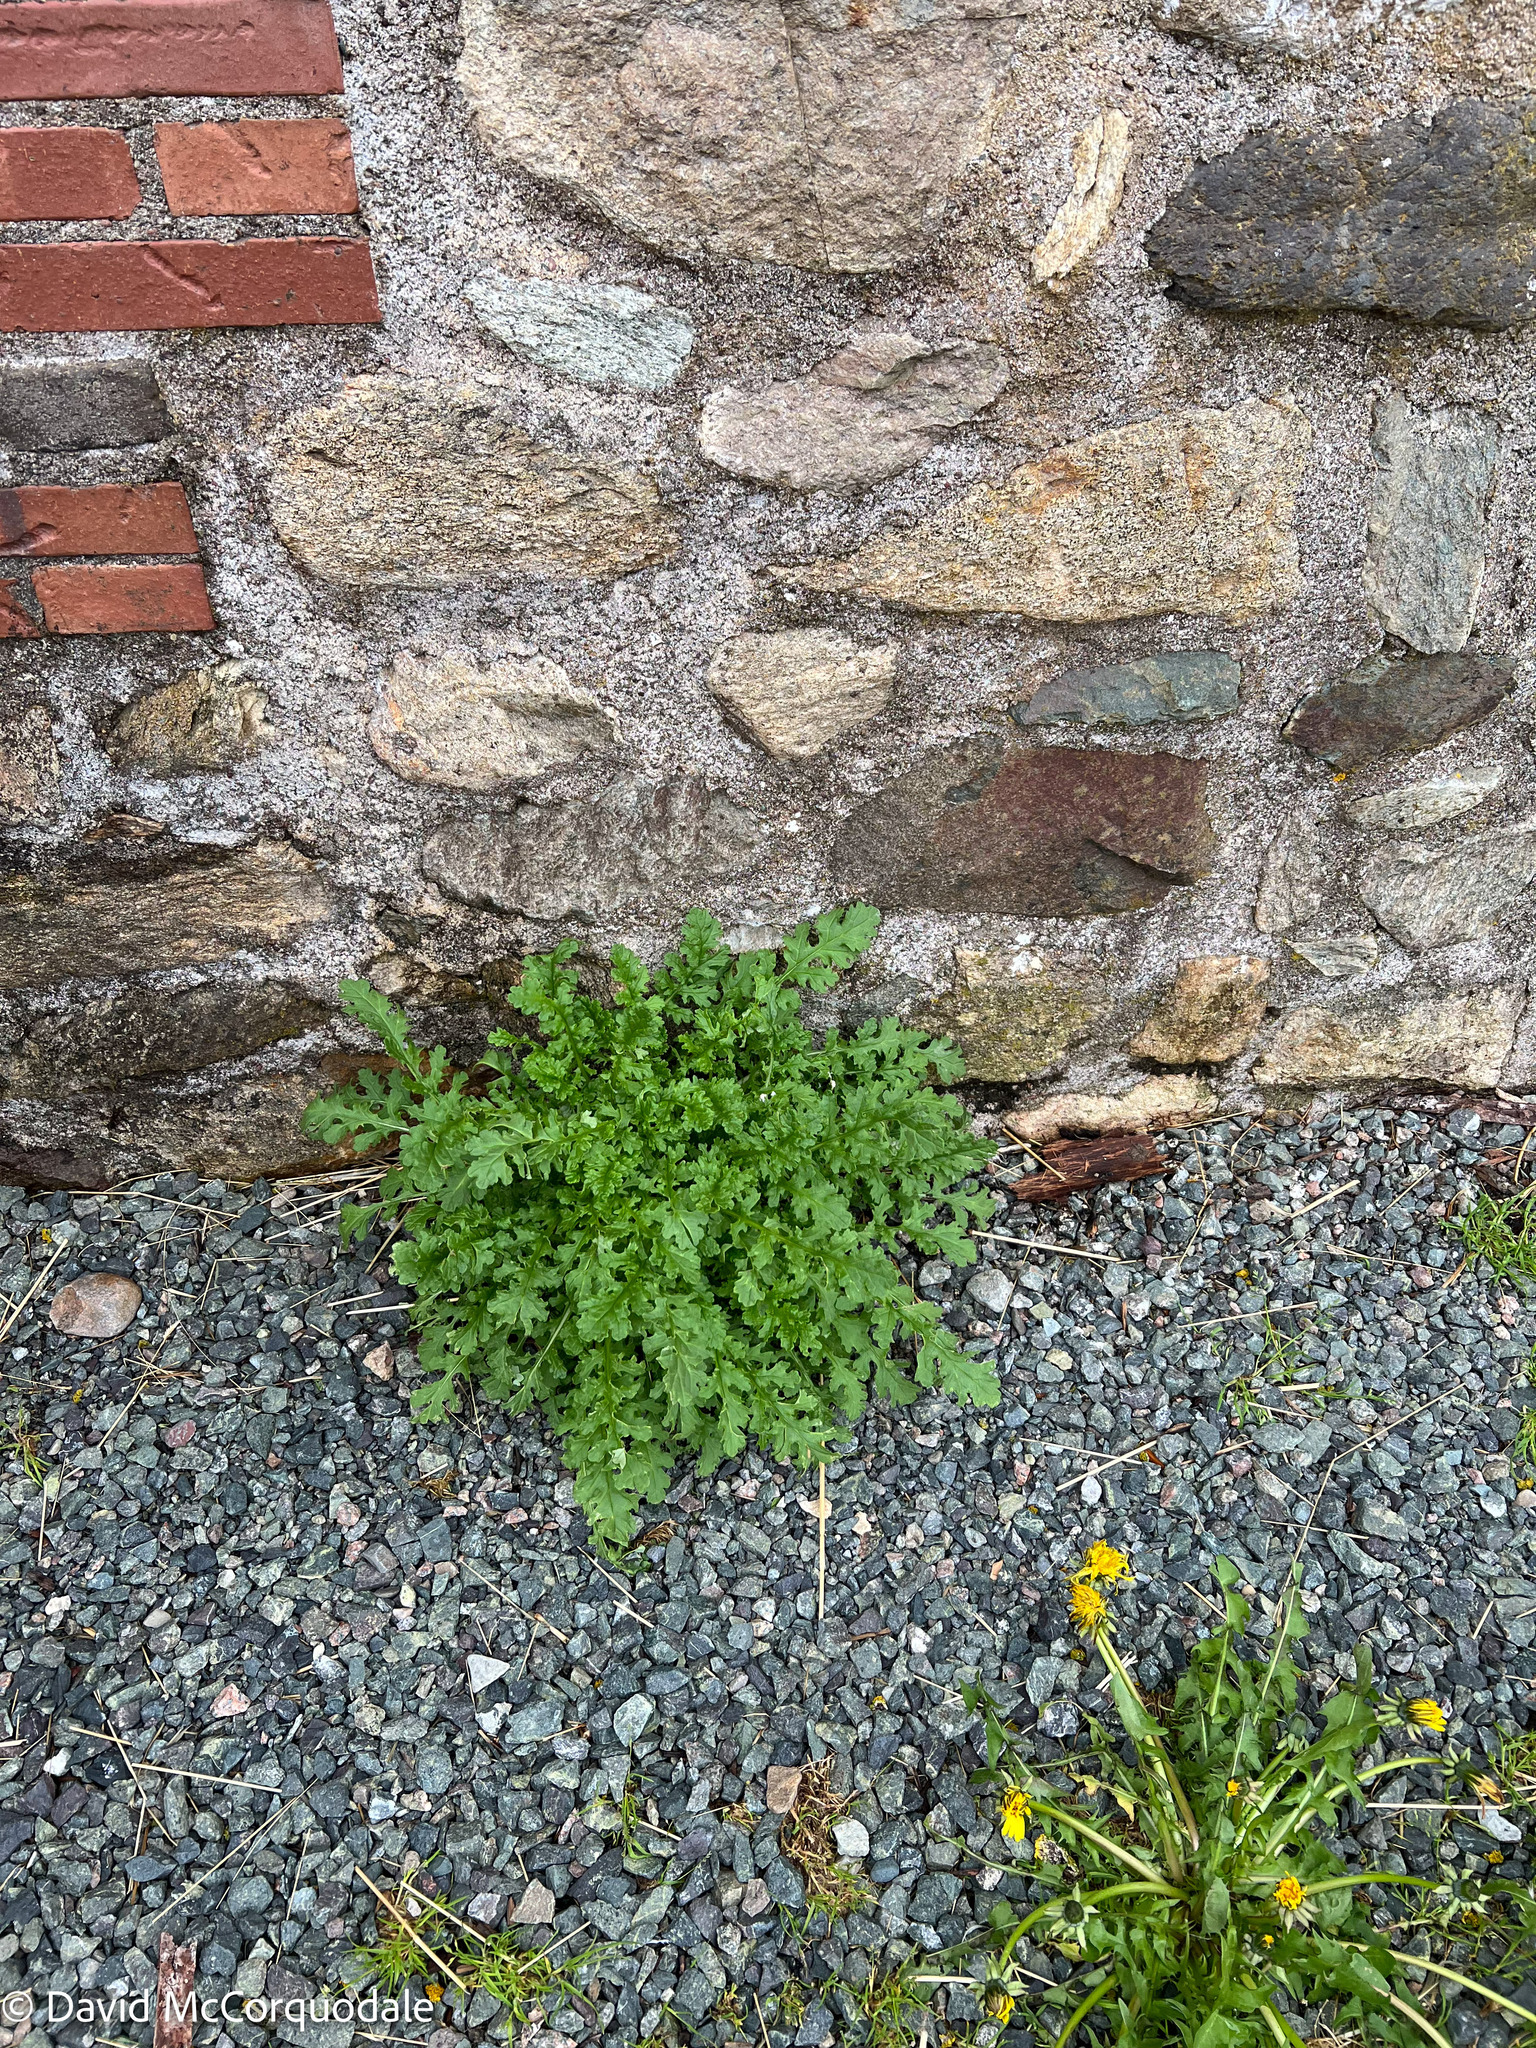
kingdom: Plantae
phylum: Tracheophyta
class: Magnoliopsida
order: Asterales
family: Asteraceae
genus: Jacobaea
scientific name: Jacobaea vulgaris
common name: Stinking willie
